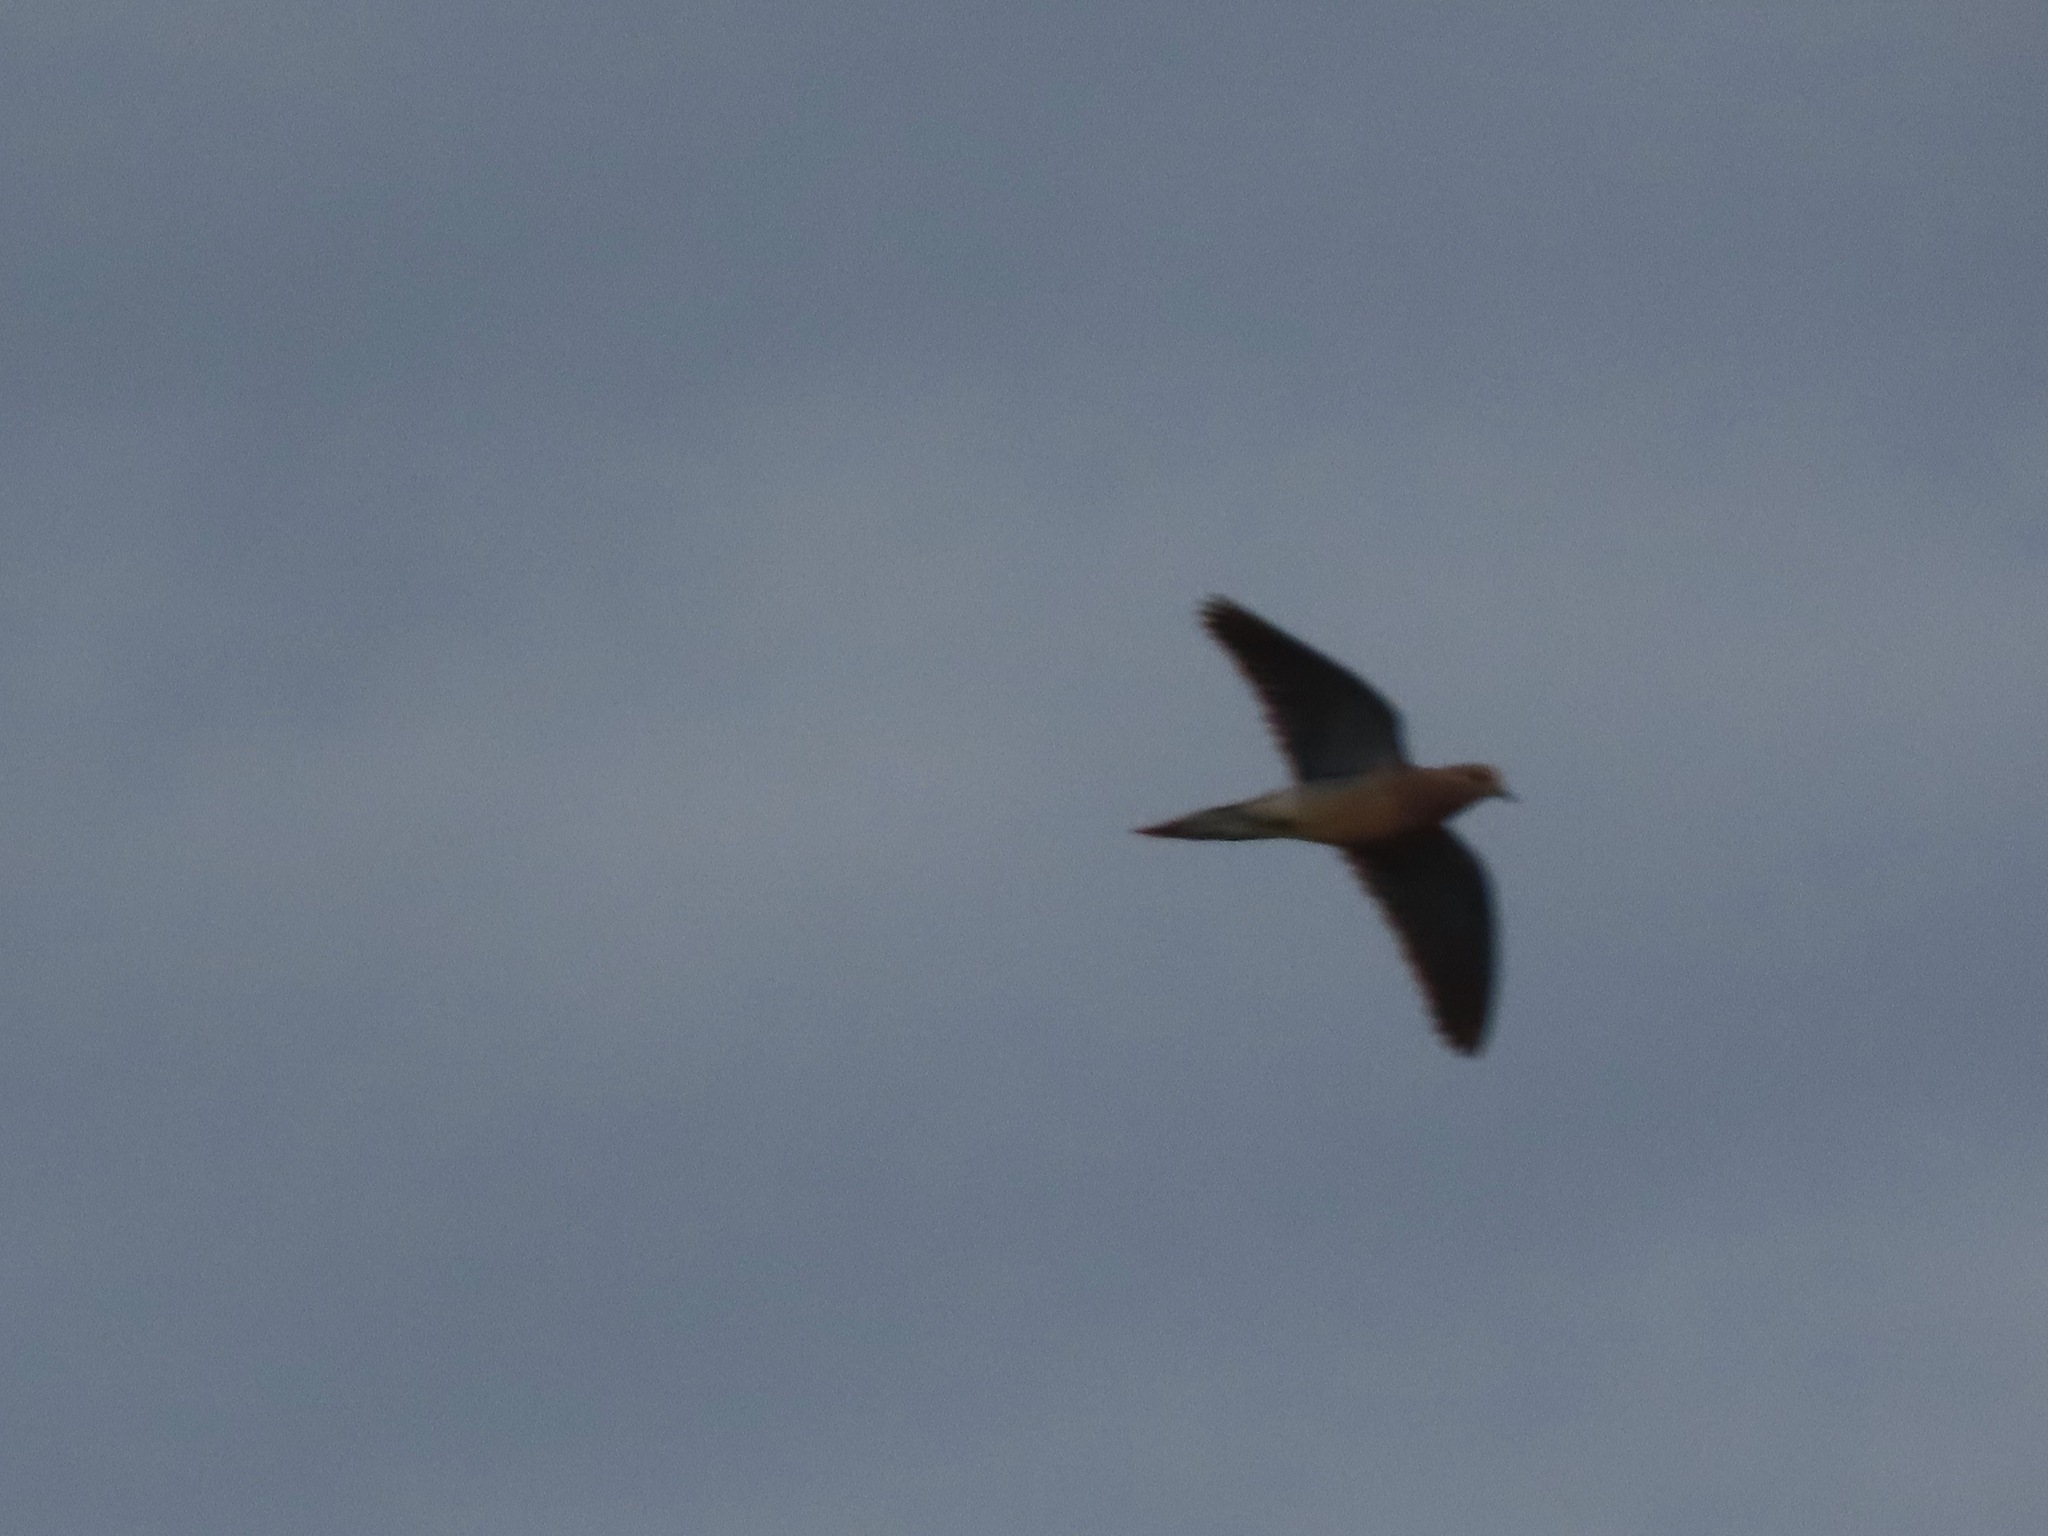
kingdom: Animalia
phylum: Chordata
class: Aves
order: Columbiformes
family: Columbidae
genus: Zenaida
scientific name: Zenaida macroura
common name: Mourning dove
